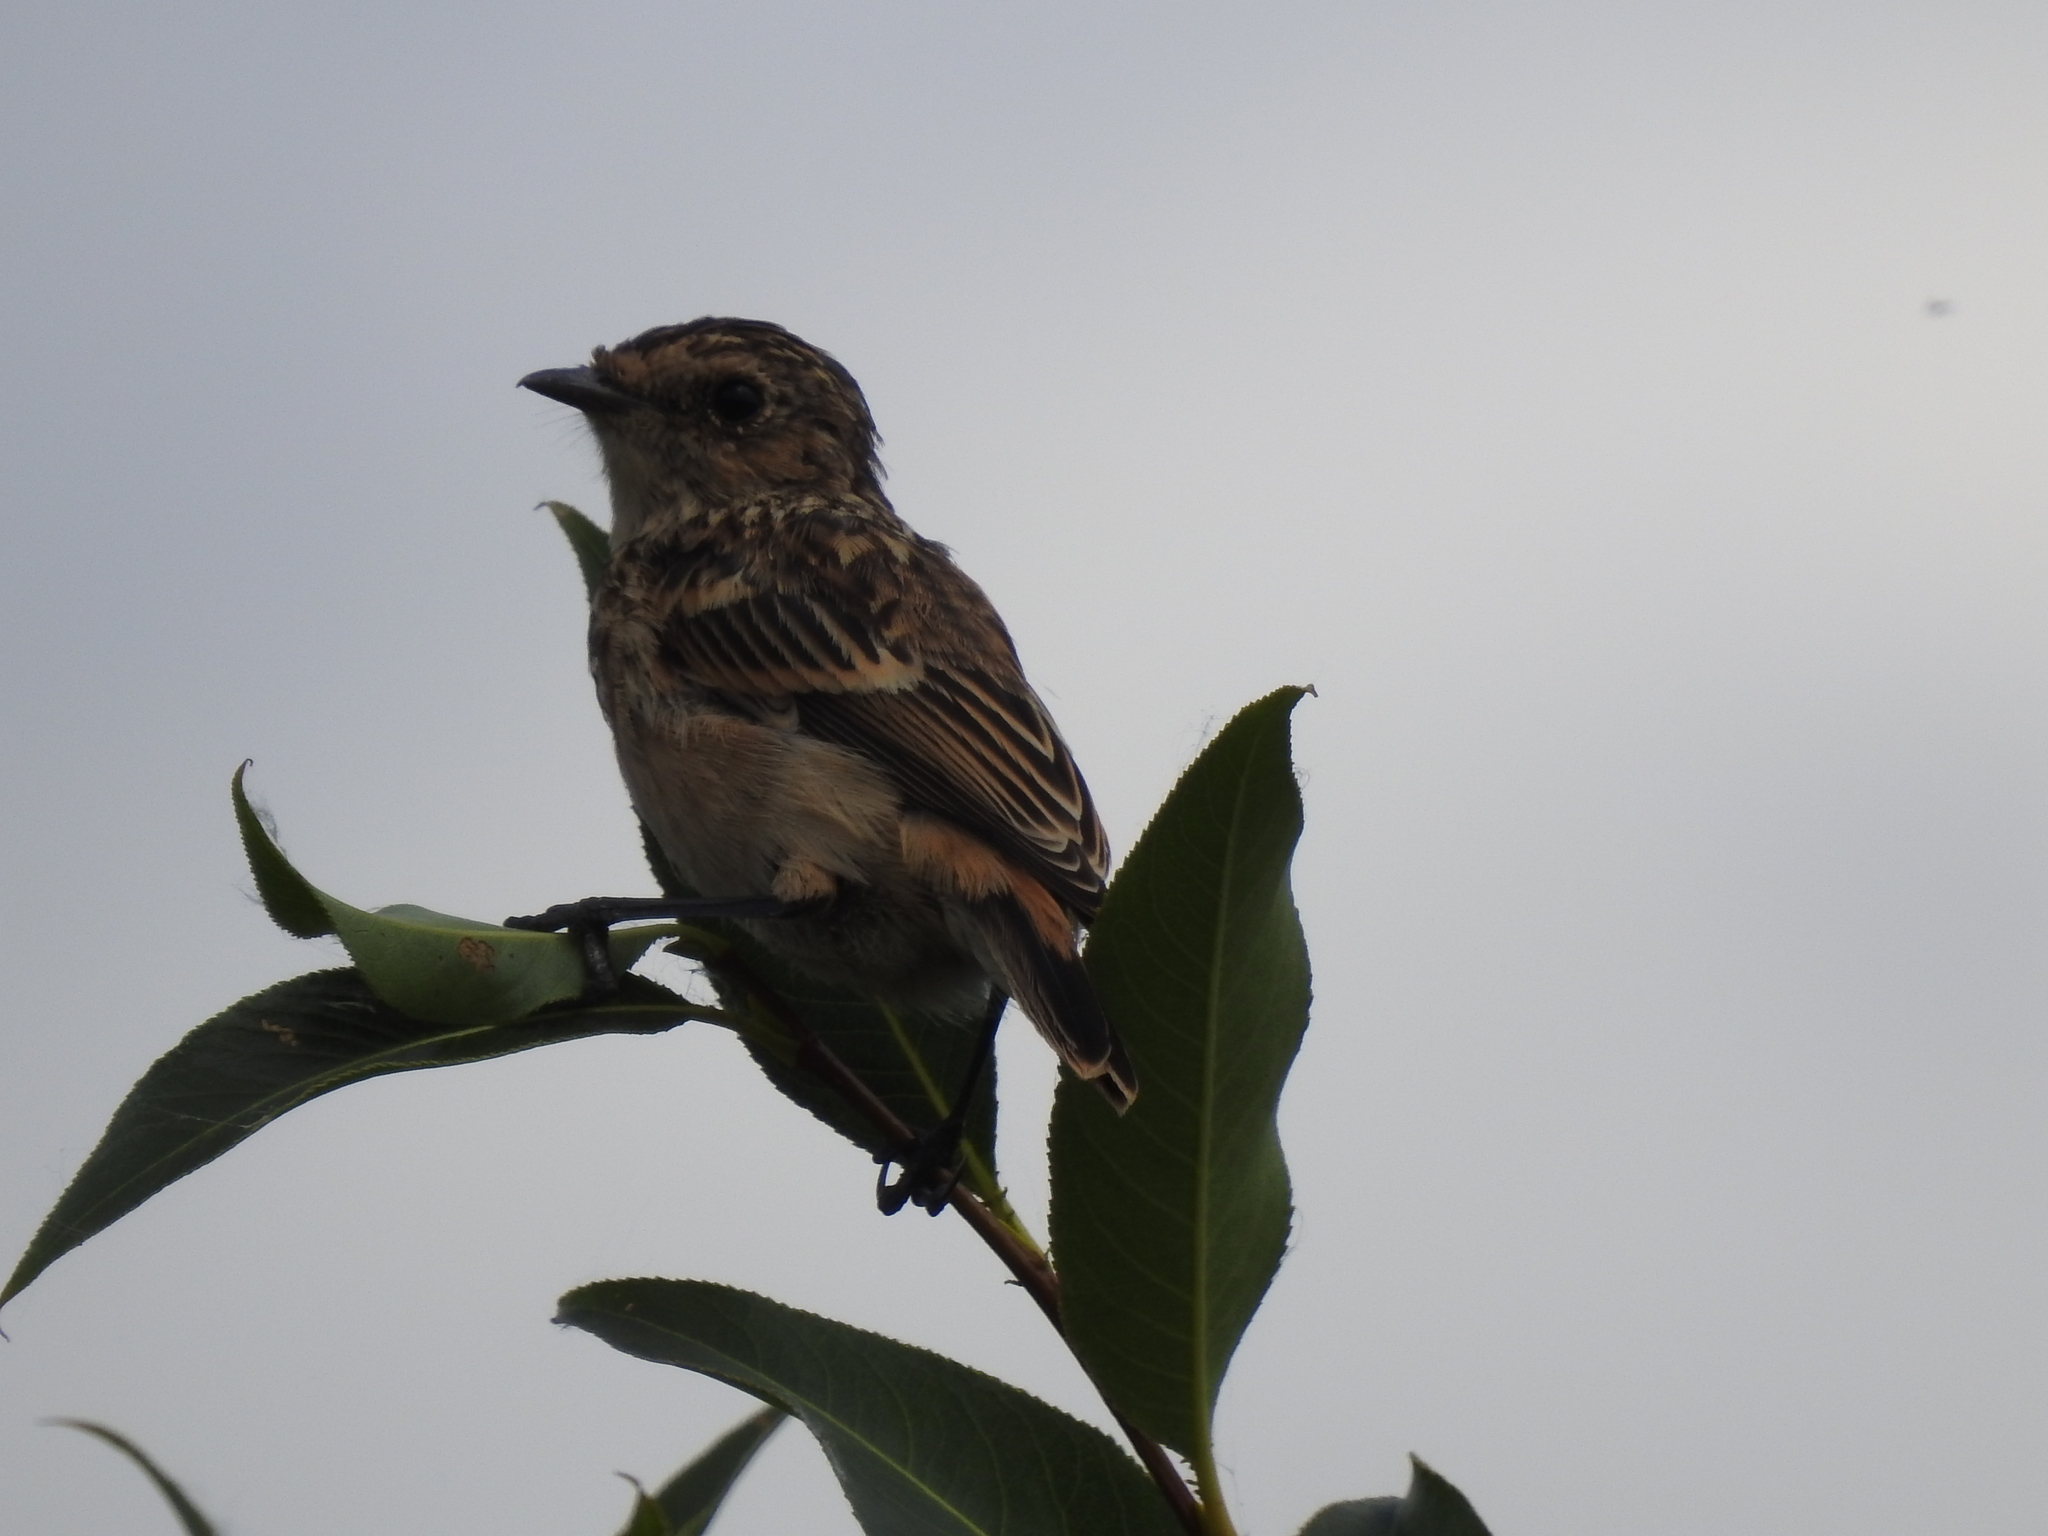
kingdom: Animalia
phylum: Chordata
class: Aves
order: Passeriformes
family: Muscicapidae
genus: Saxicola
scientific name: Saxicola maurus
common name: Siberian stonechat
